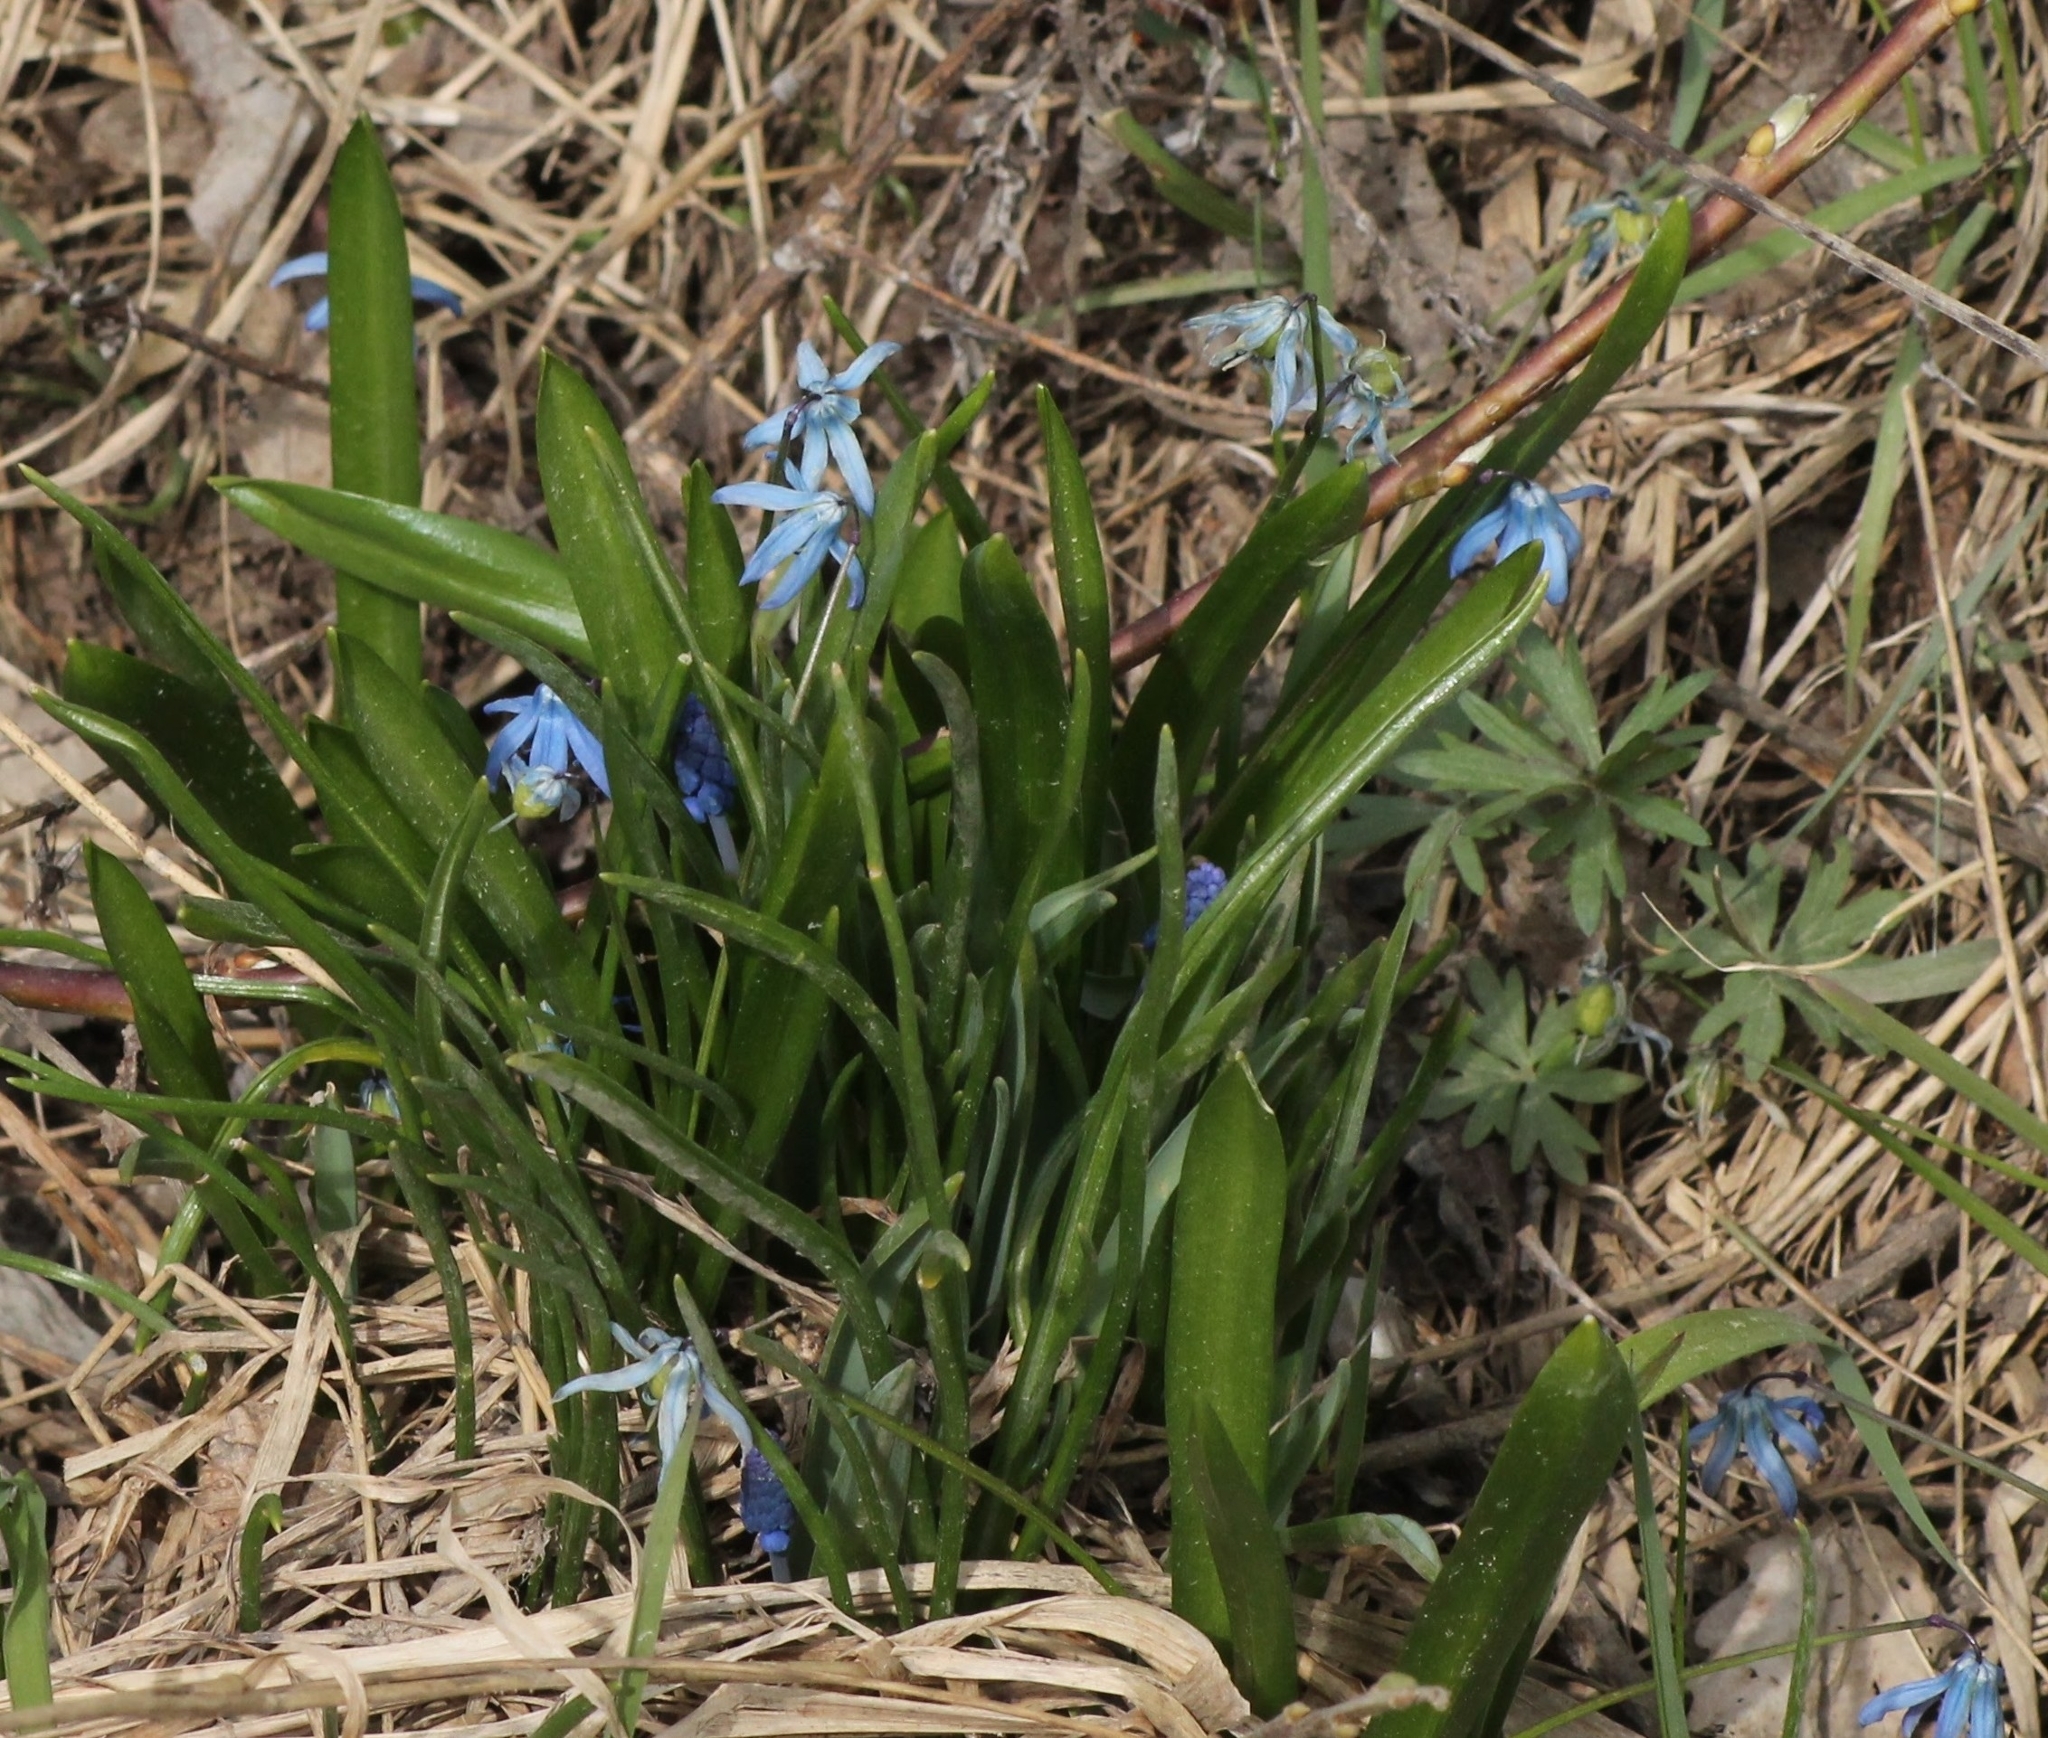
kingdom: Plantae
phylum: Tracheophyta
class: Liliopsida
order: Asparagales
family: Asparagaceae
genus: Scilla
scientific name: Scilla siberica
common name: Siberian squill
